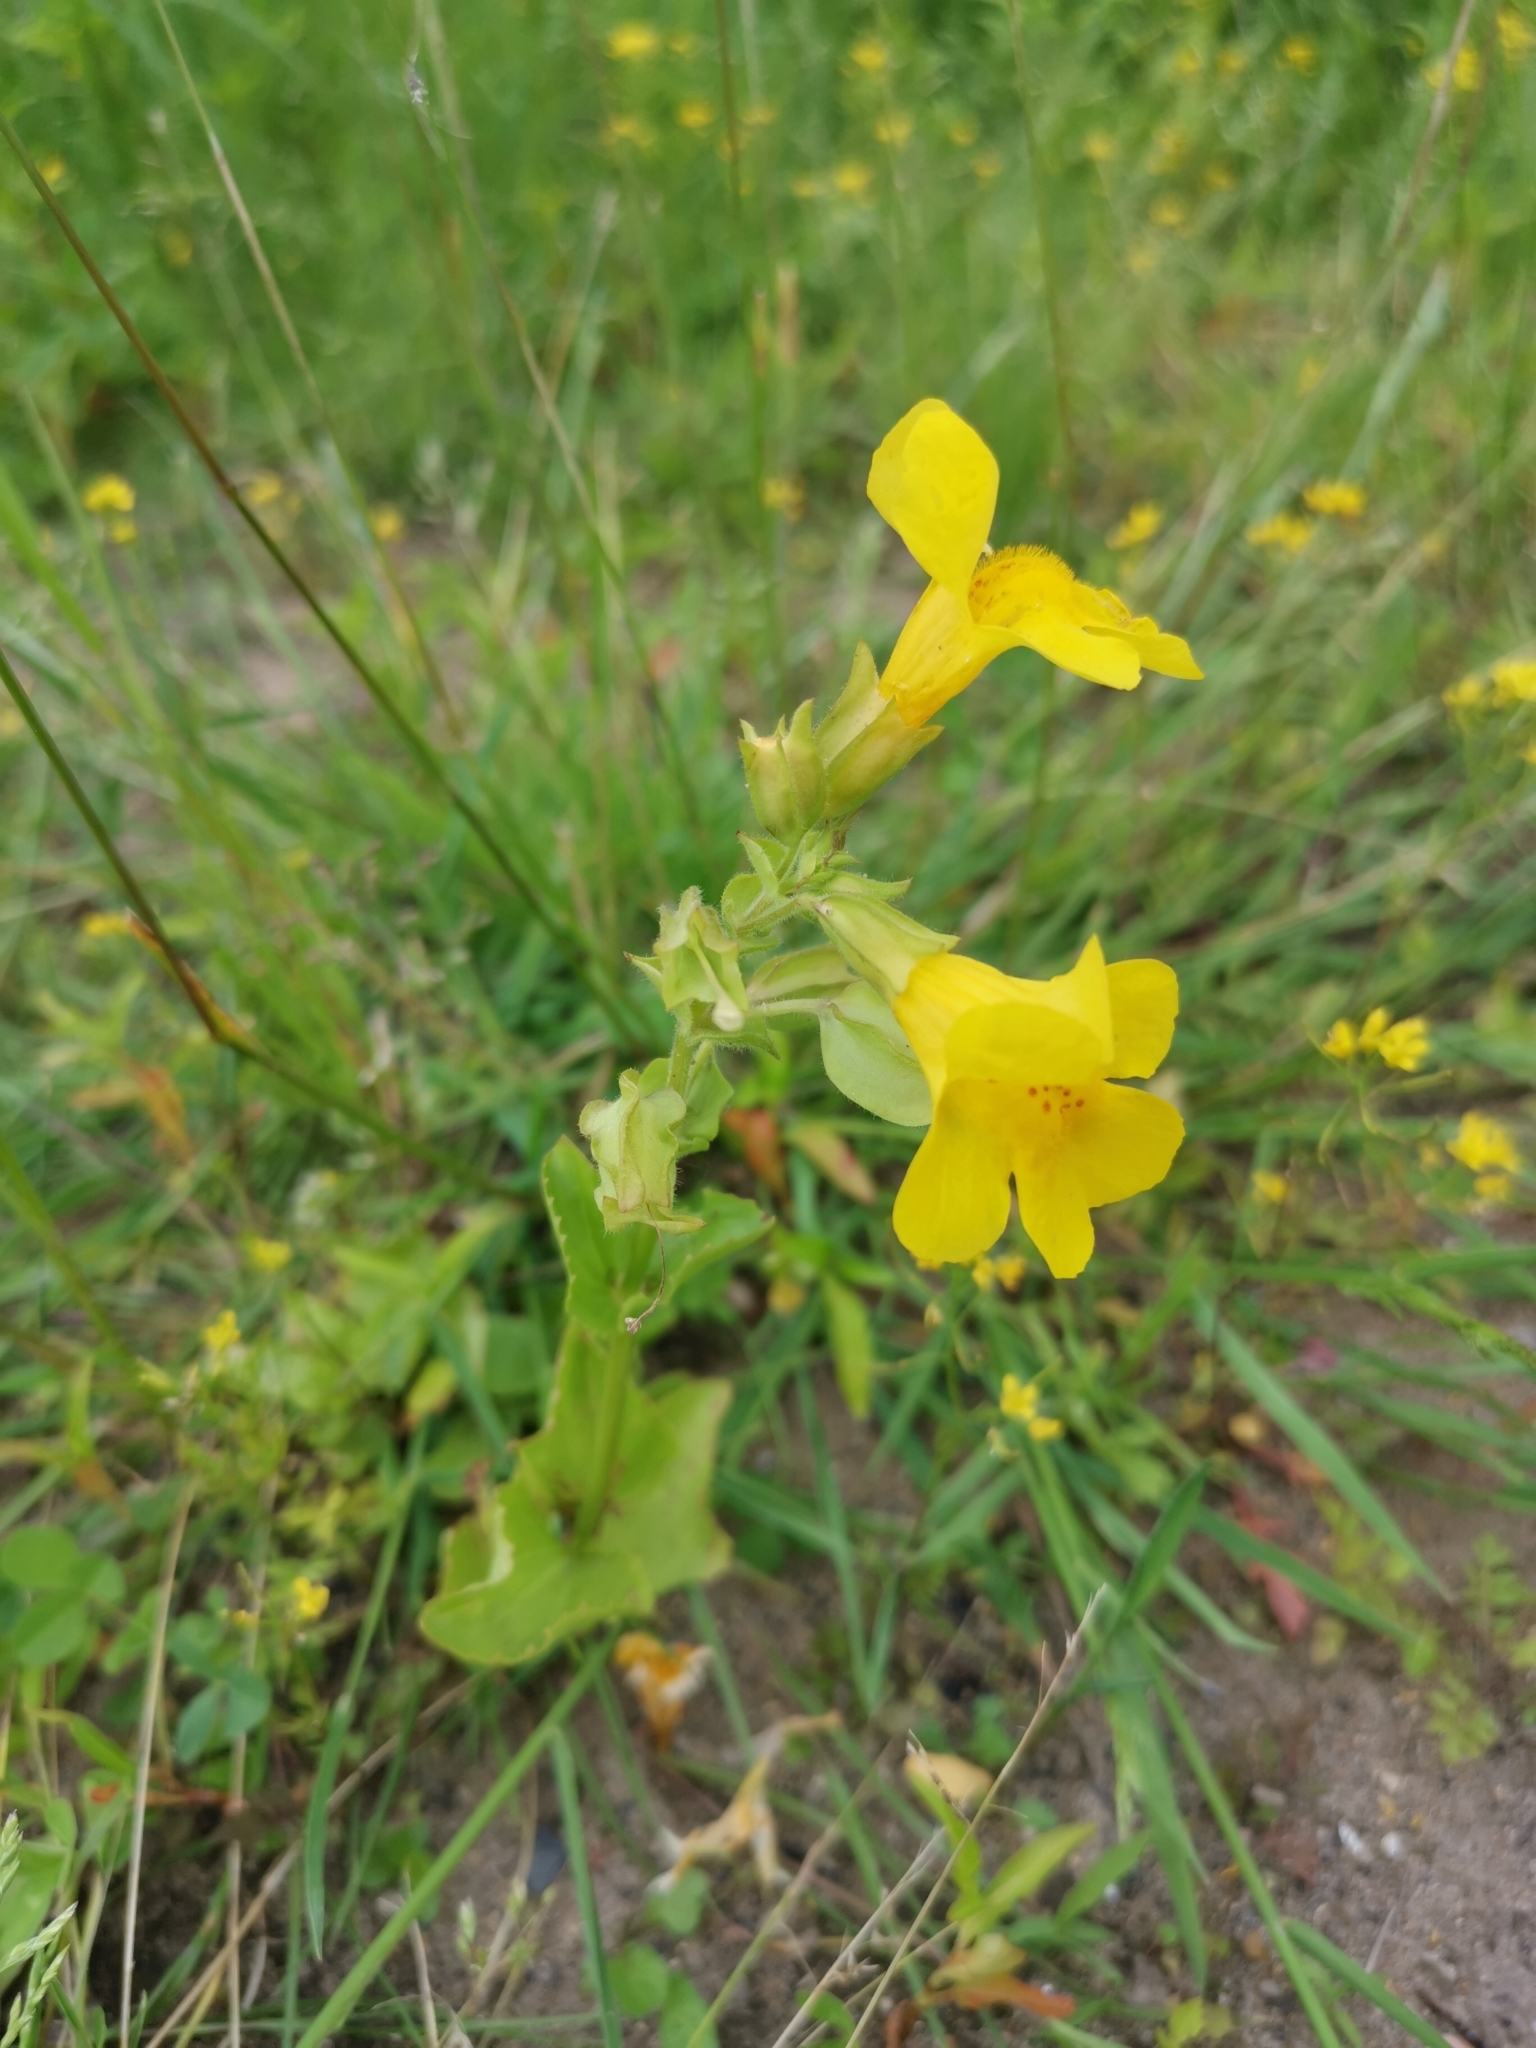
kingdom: Plantae
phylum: Tracheophyta
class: Magnoliopsida
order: Lamiales
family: Phrymaceae
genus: Erythranthe
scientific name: Erythranthe guttata
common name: Monkeyflower
